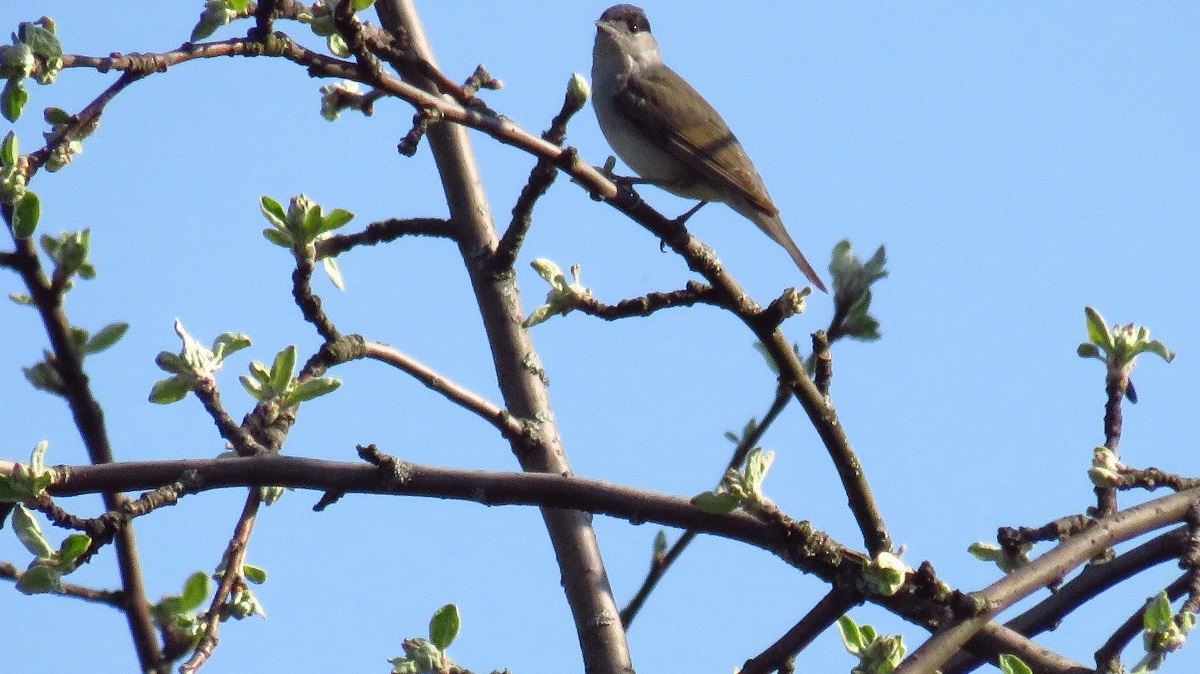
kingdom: Animalia
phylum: Chordata
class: Aves
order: Passeriformes
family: Sylviidae
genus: Sylvia
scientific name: Sylvia atricapilla
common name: Eurasian blackcap
